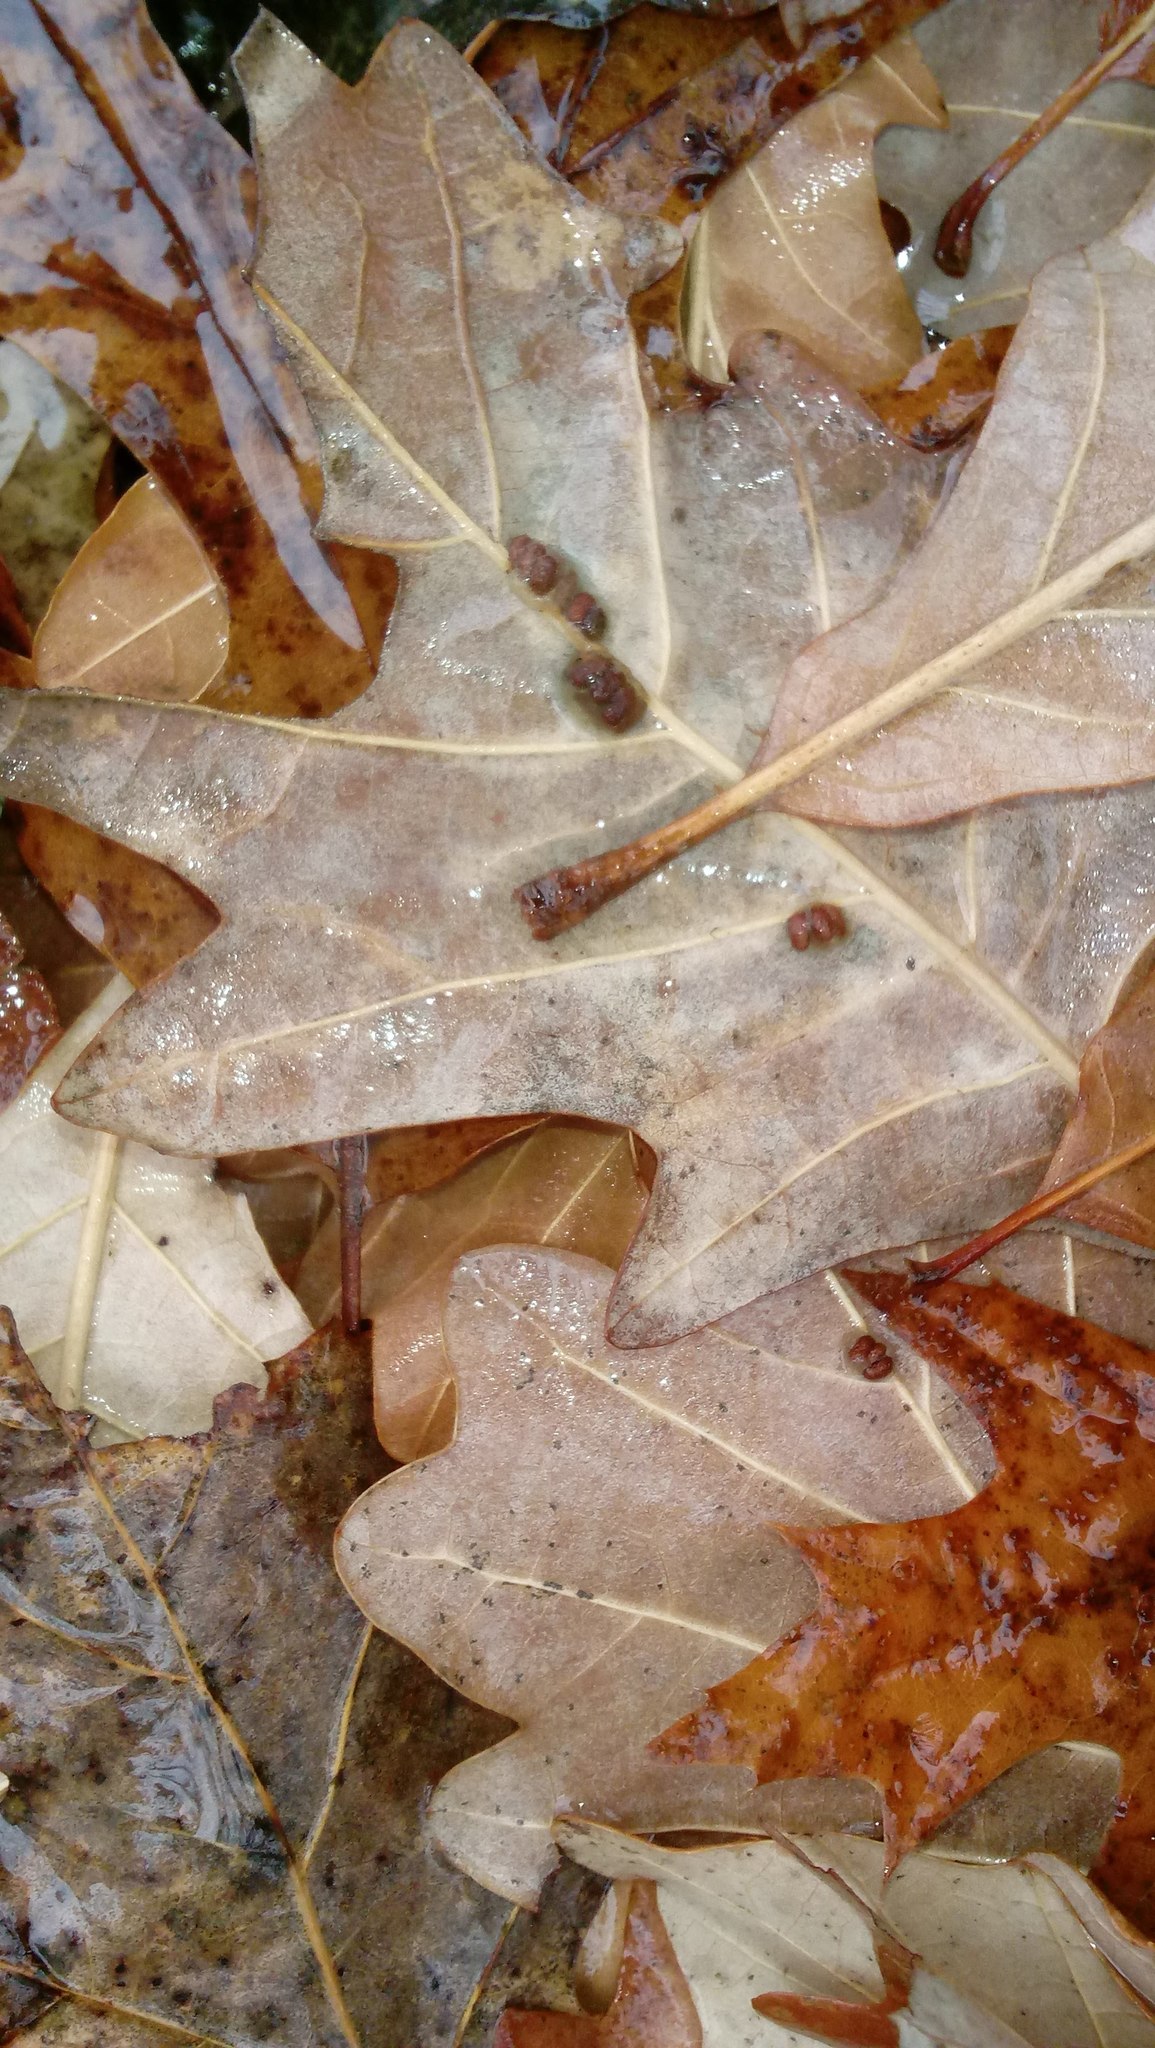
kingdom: Animalia
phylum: Arthropoda
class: Insecta
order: Hymenoptera
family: Cynipidae
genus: Andricus
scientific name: Andricus Druon ignotum
